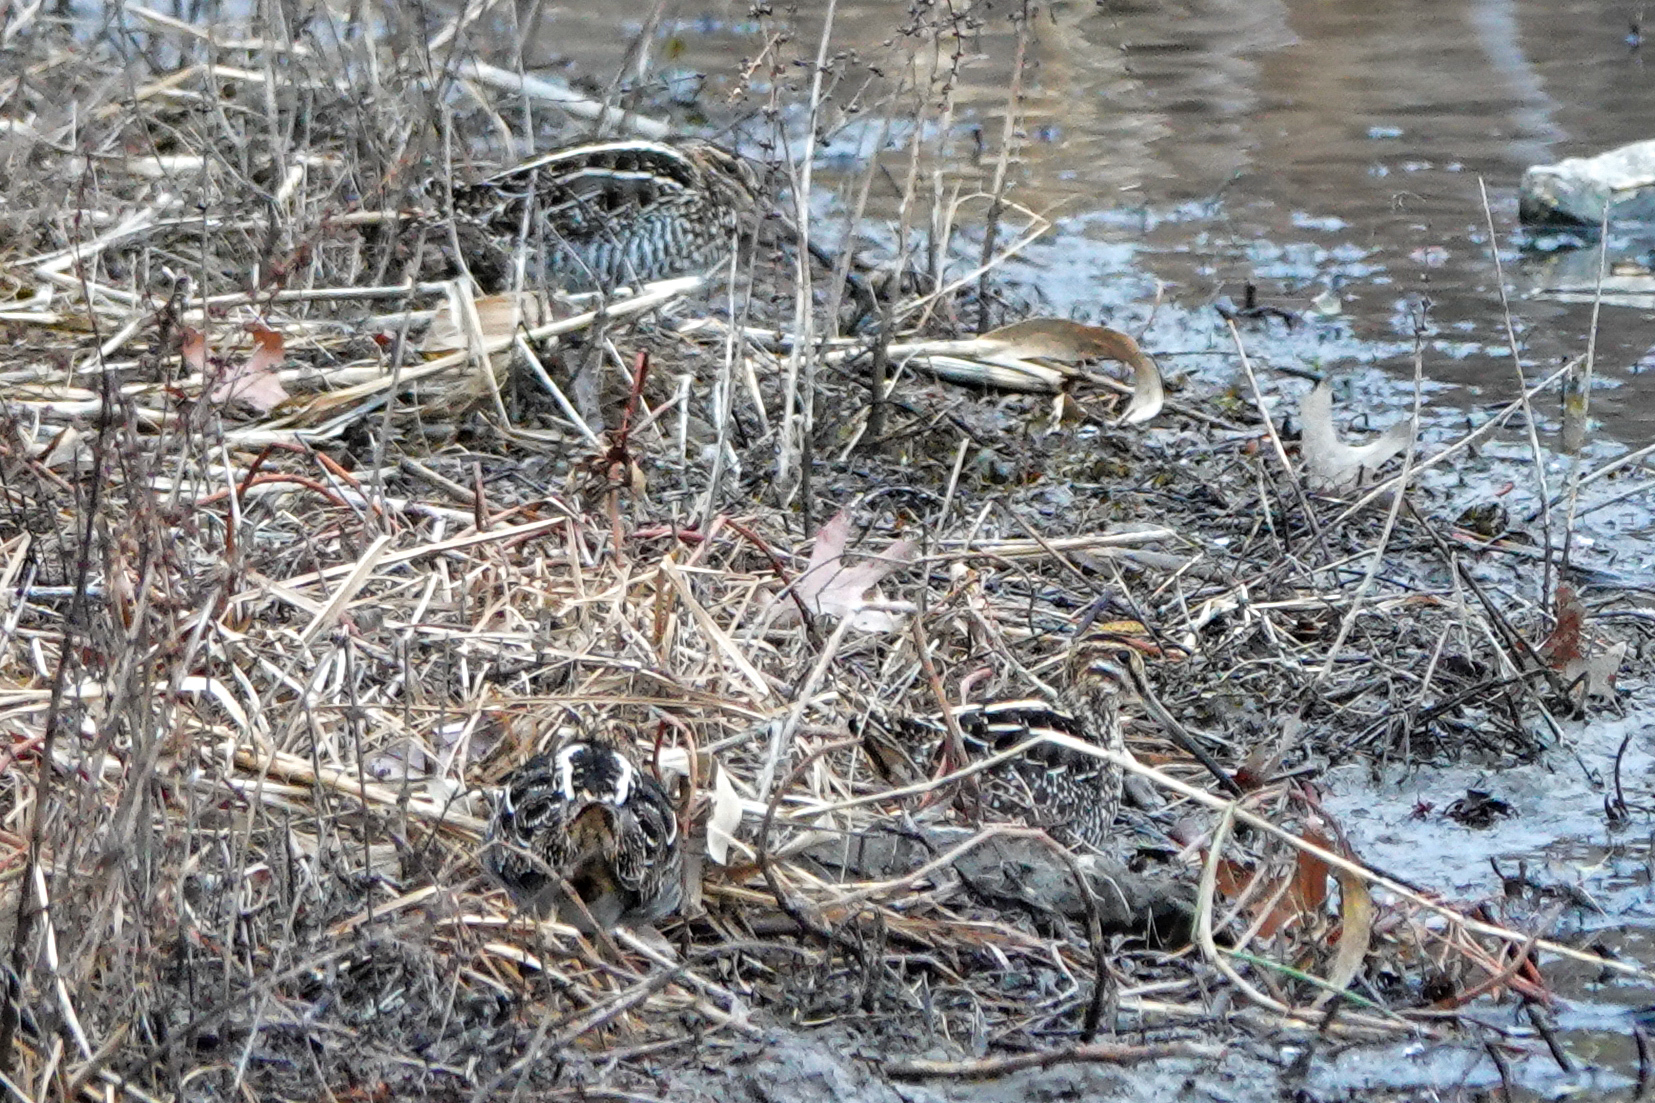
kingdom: Animalia
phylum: Chordata
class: Aves
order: Charadriiformes
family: Scolopacidae
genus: Gallinago
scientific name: Gallinago delicata
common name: Wilson's snipe
